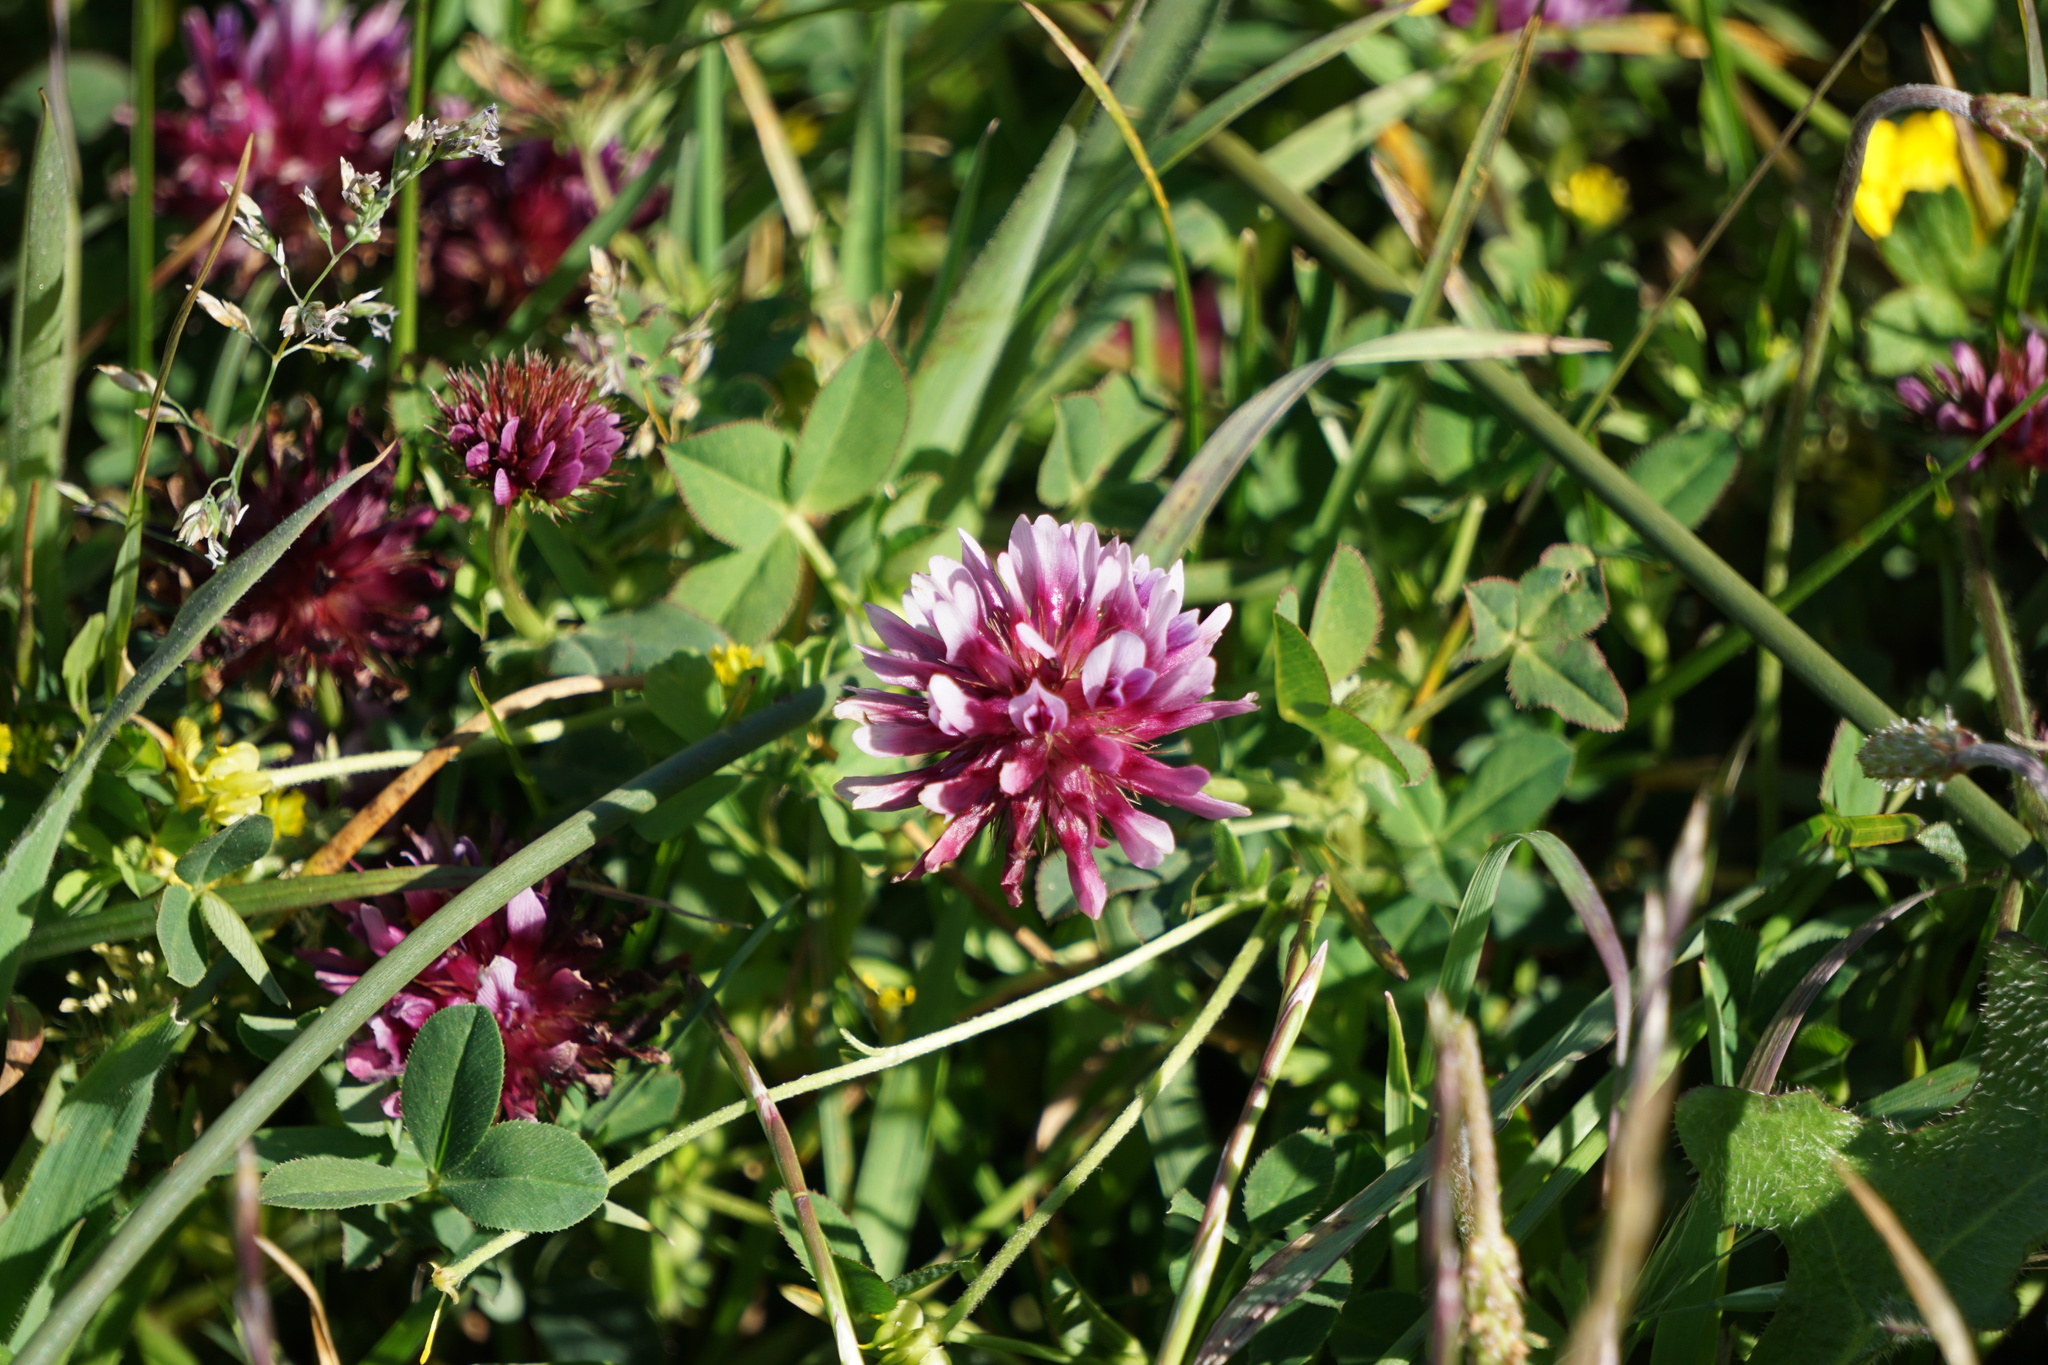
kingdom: Plantae
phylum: Tracheophyta
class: Magnoliopsida
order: Fabales
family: Fabaceae
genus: Trifolium
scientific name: Trifolium wormskioldii
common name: Springbank clover
